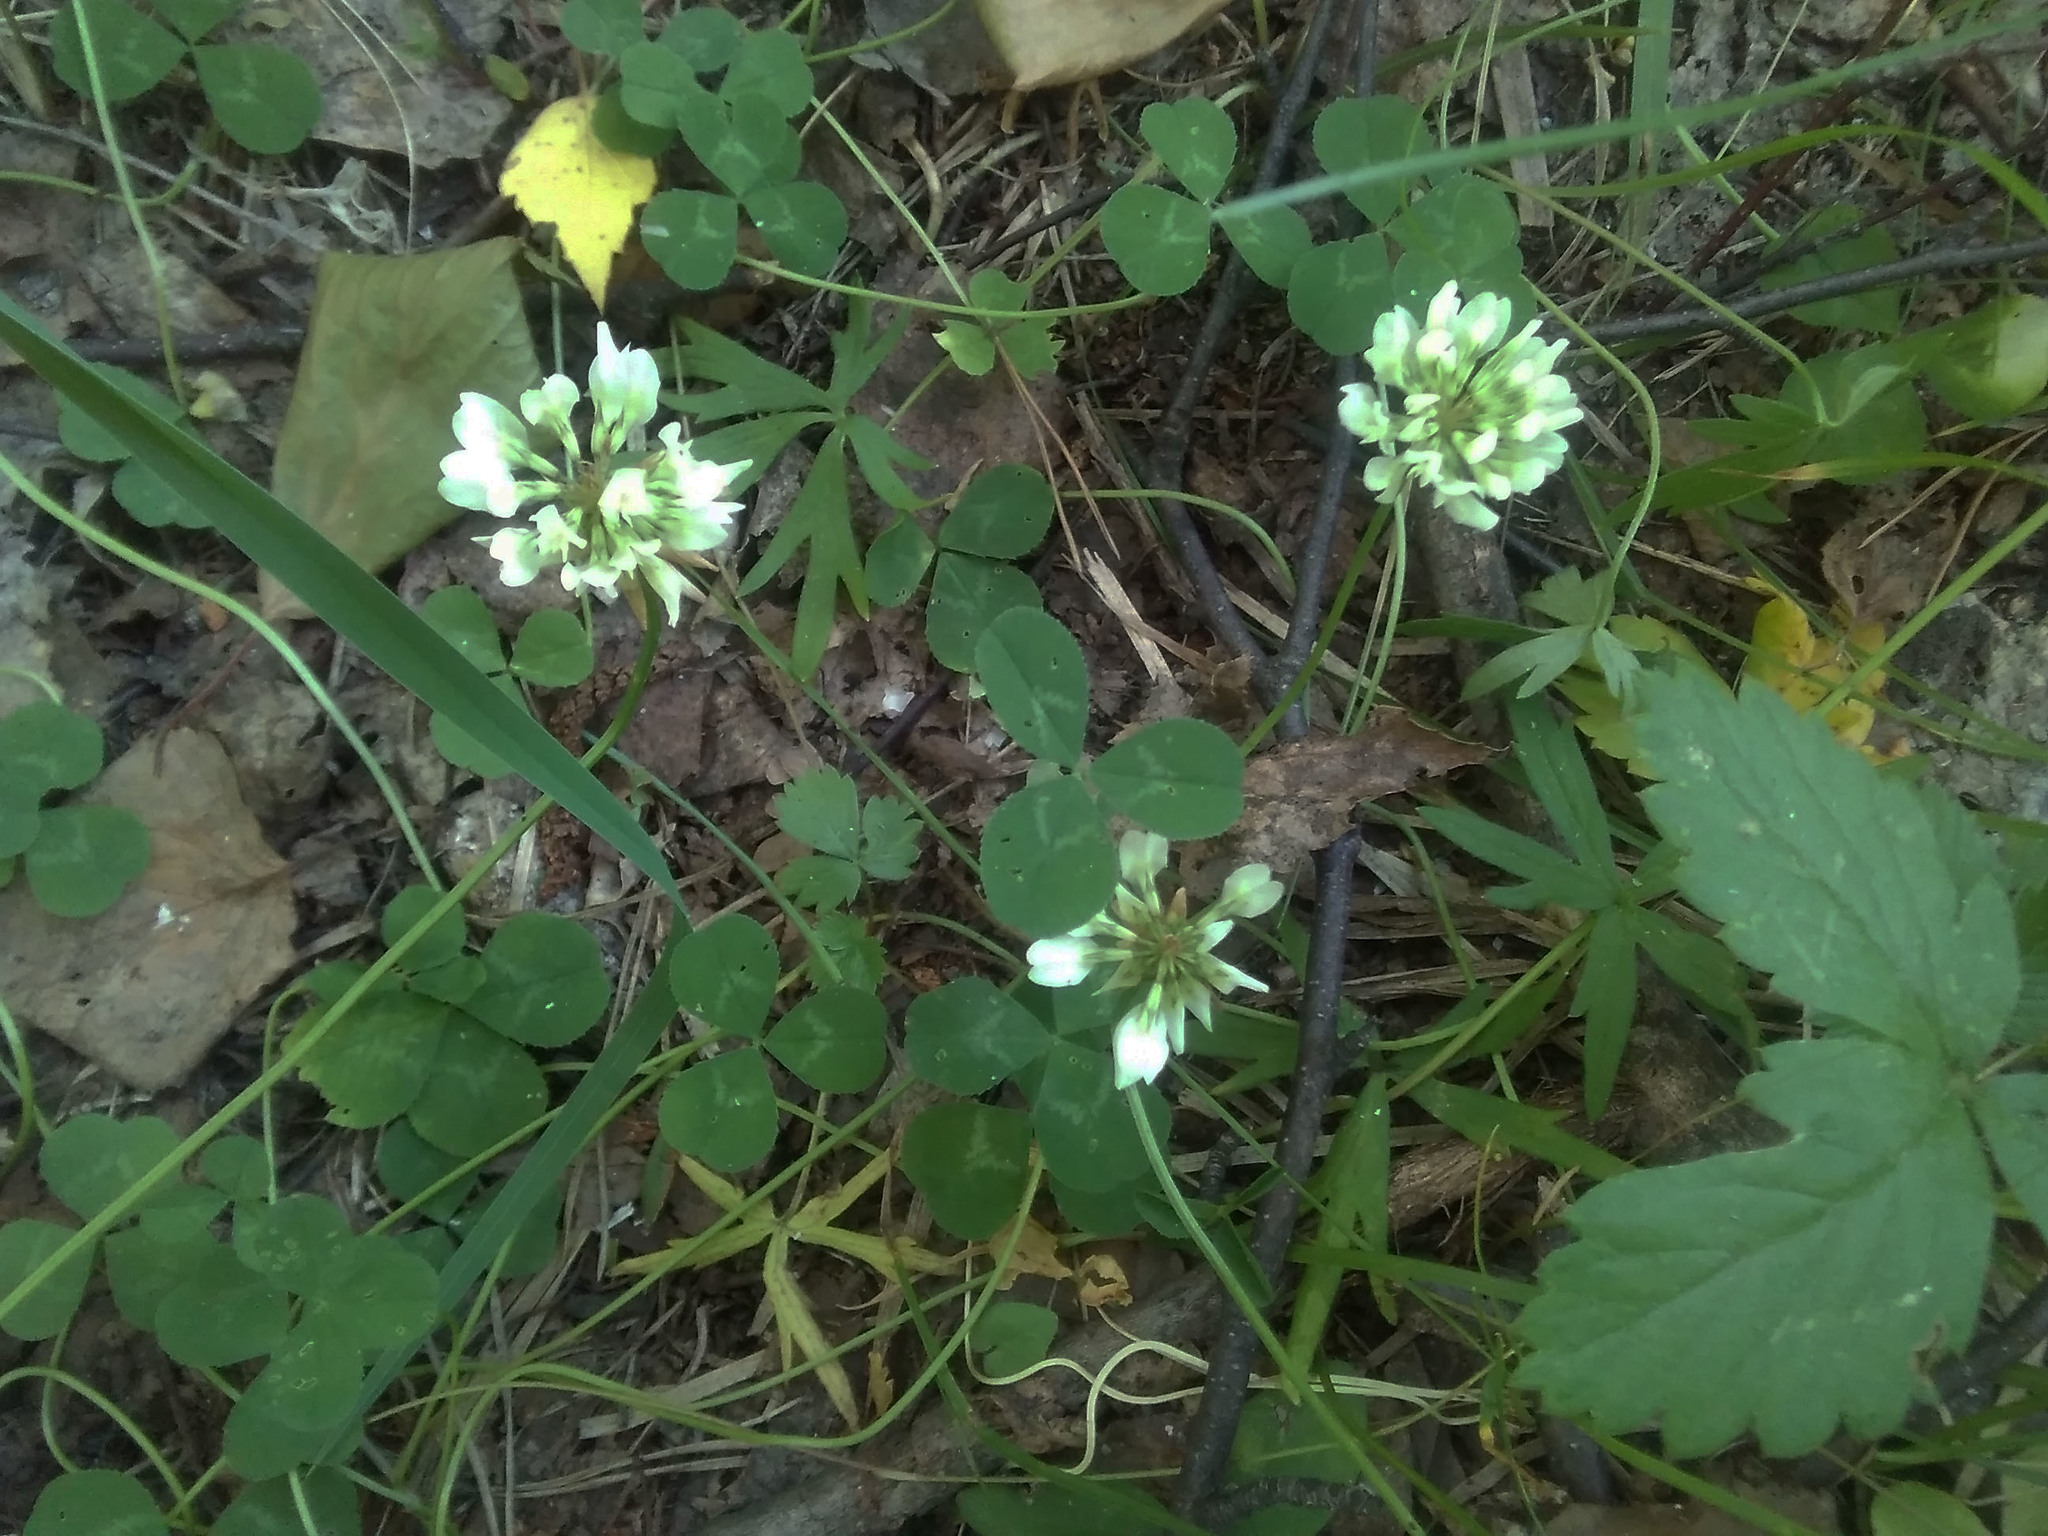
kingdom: Plantae
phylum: Tracheophyta
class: Magnoliopsida
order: Fabales
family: Fabaceae
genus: Trifolium
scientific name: Trifolium repens
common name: White clover
